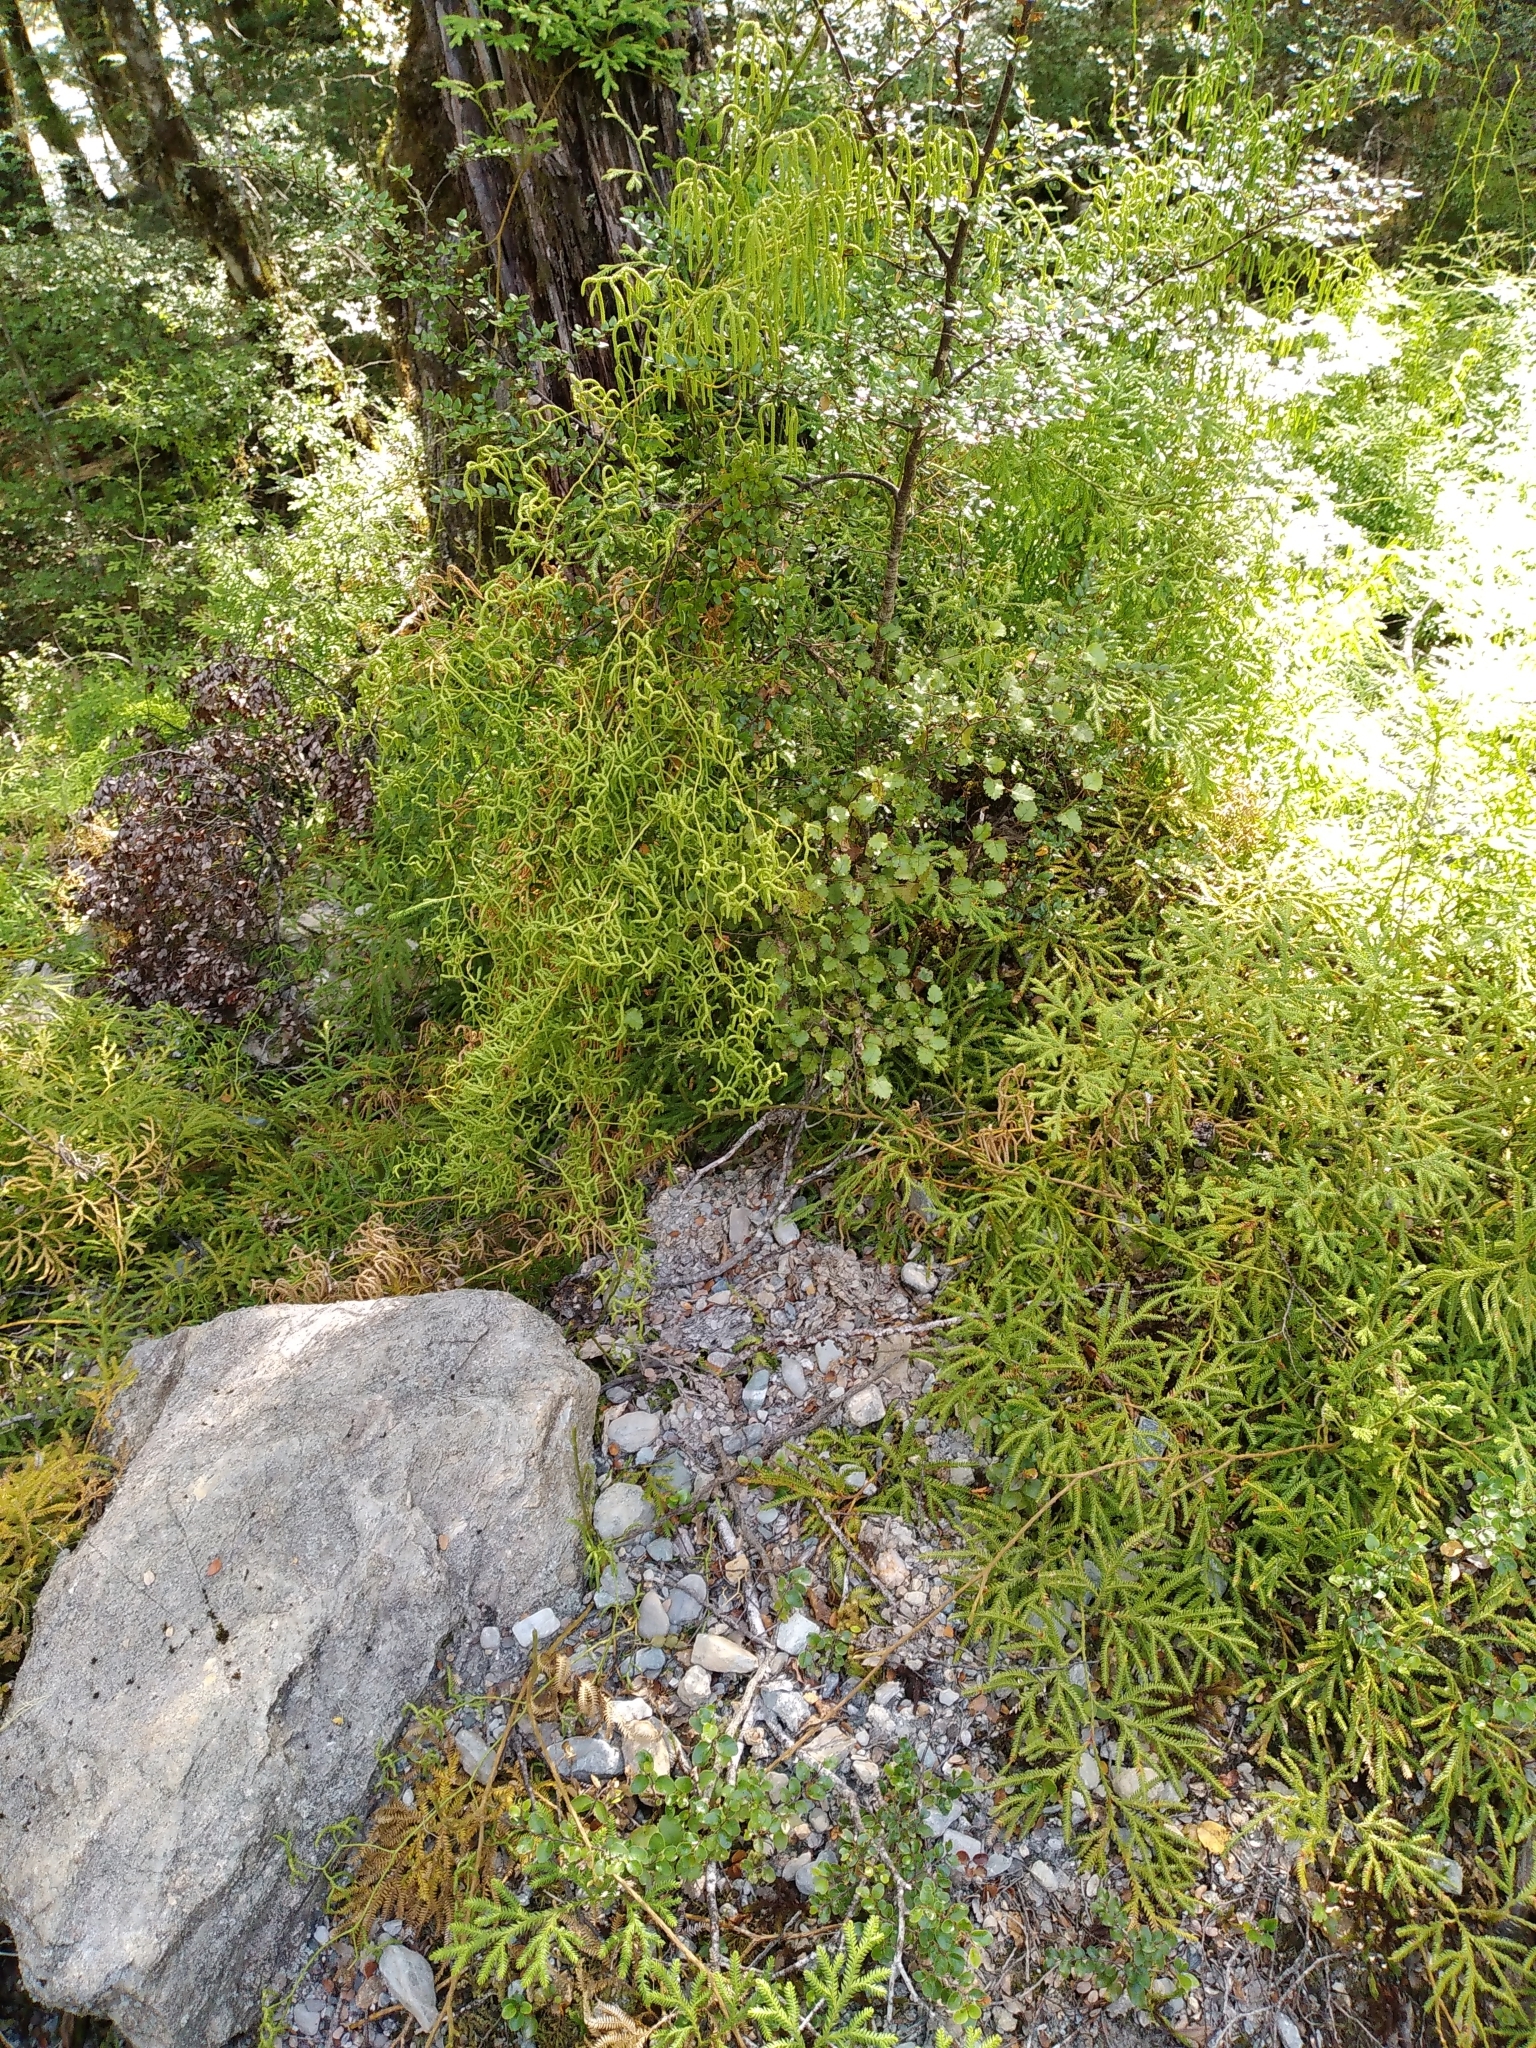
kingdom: Plantae
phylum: Tracheophyta
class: Lycopodiopsida
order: Lycopodiales
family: Lycopodiaceae
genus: Lycopodium
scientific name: Lycopodium volubile
